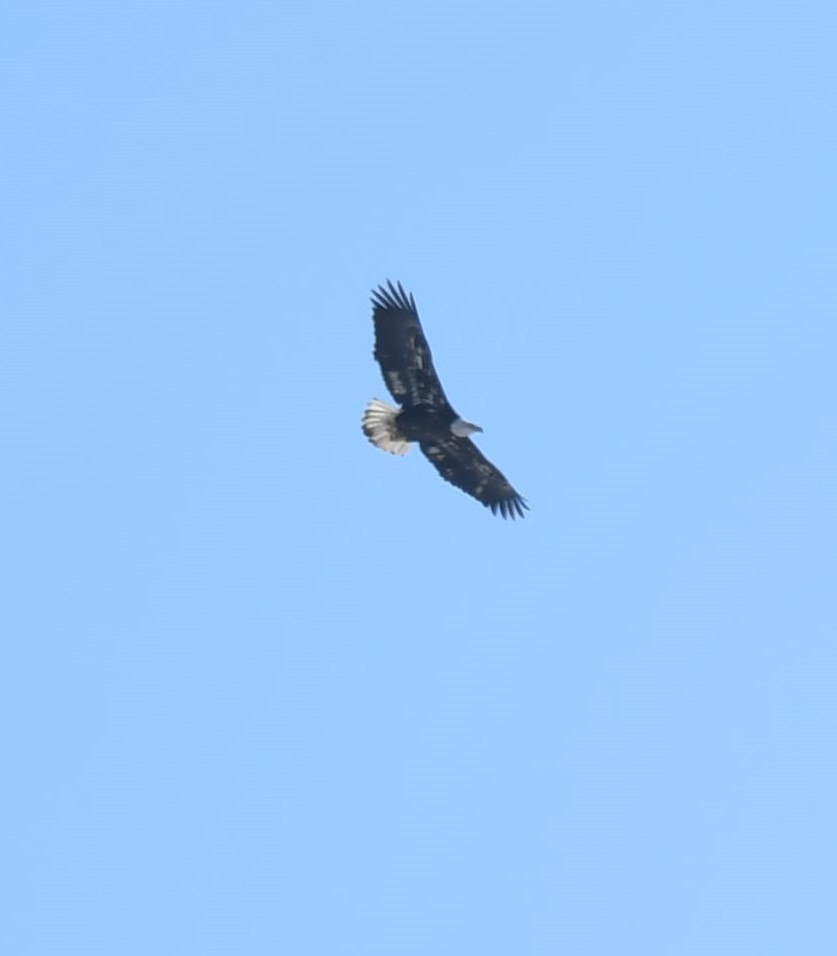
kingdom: Animalia
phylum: Chordata
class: Aves
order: Accipitriformes
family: Accipitridae
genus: Haliaeetus
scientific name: Haliaeetus leucocephalus
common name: Bald eagle
